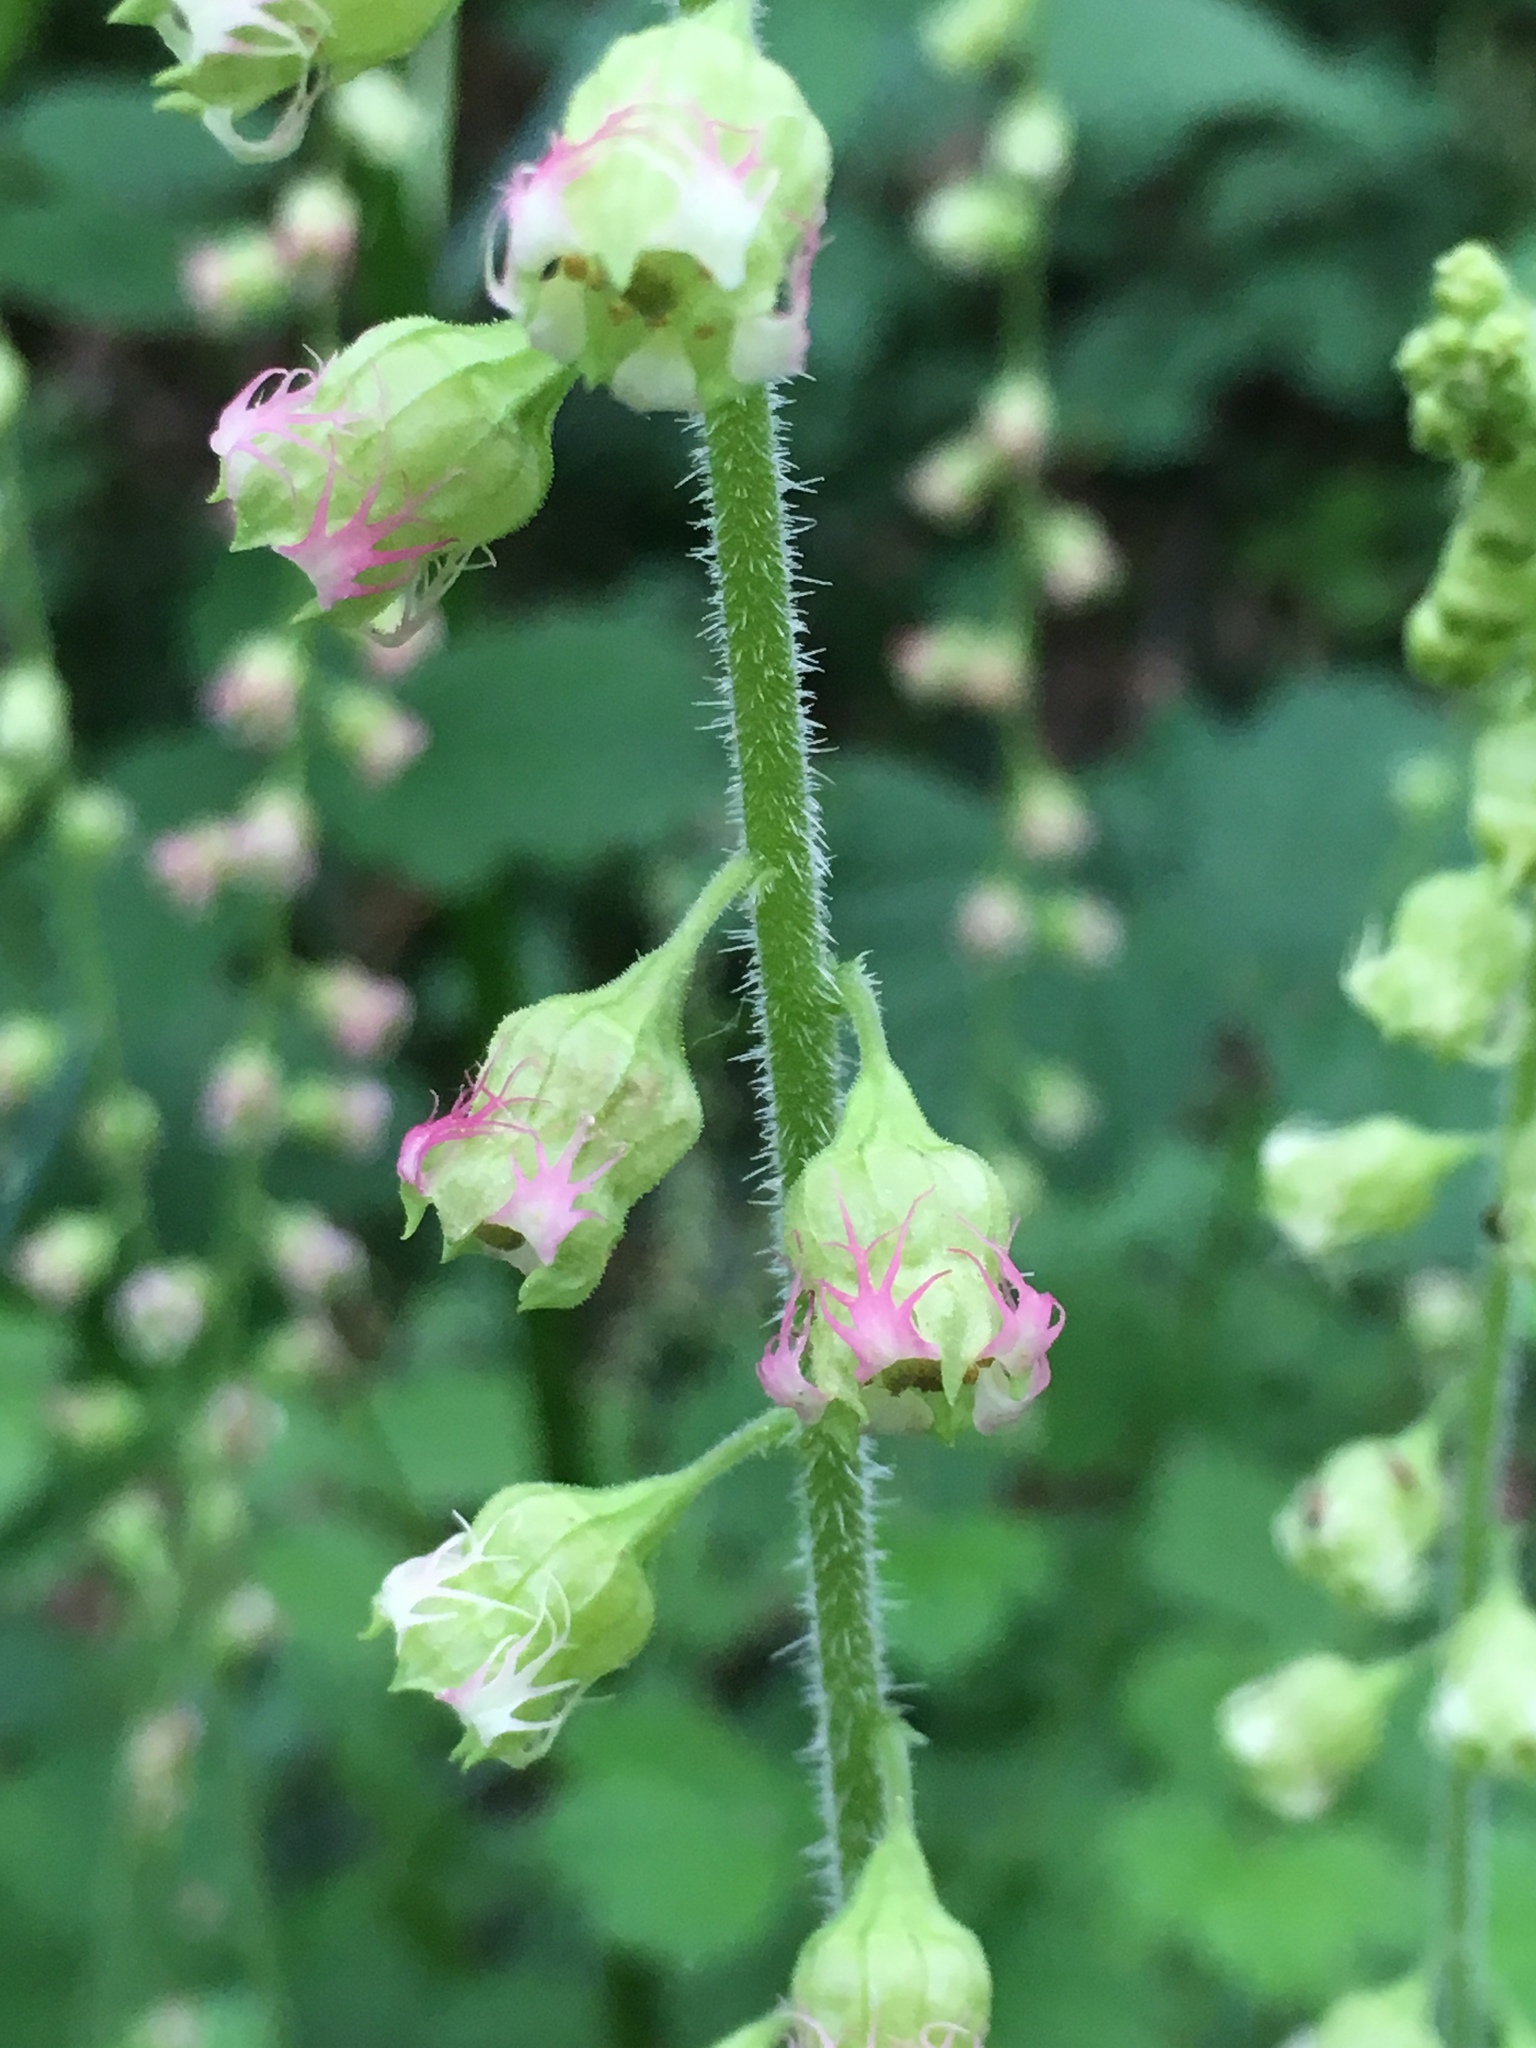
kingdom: Plantae
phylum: Tracheophyta
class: Magnoliopsida
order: Saxifragales
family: Saxifragaceae
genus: Tellima
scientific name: Tellima grandiflora
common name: Fringecups
